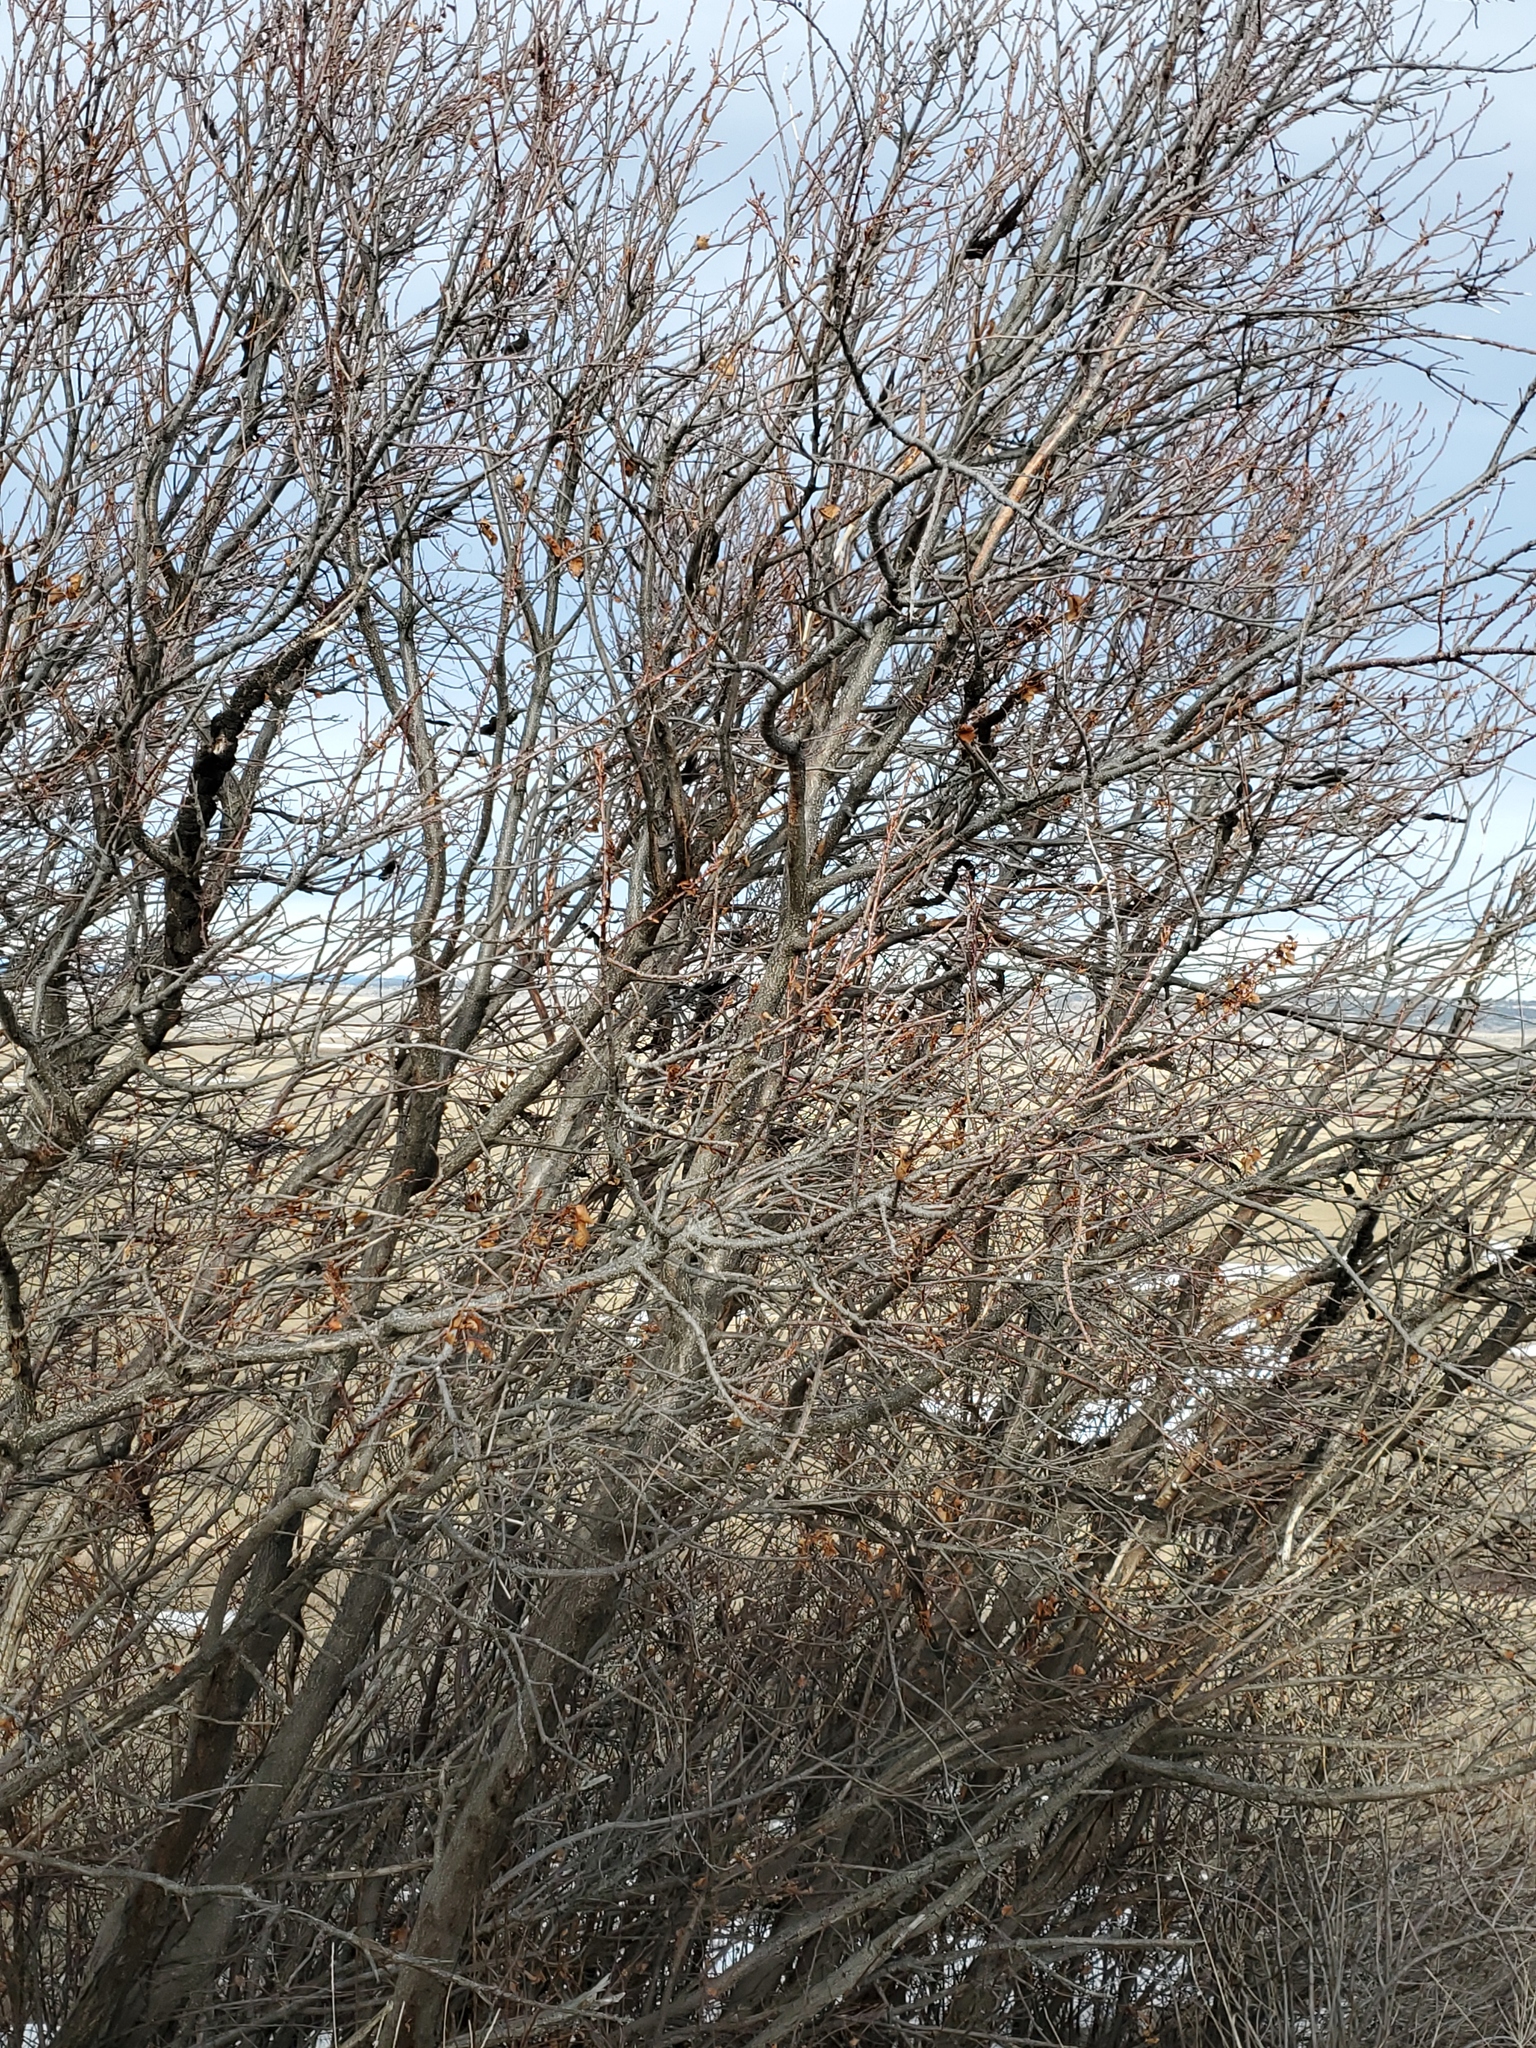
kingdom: Fungi
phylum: Ascomycota
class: Dothideomycetes
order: Venturiales
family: Venturiaceae
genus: Apiosporina
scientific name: Apiosporina morbosa
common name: Black knot
